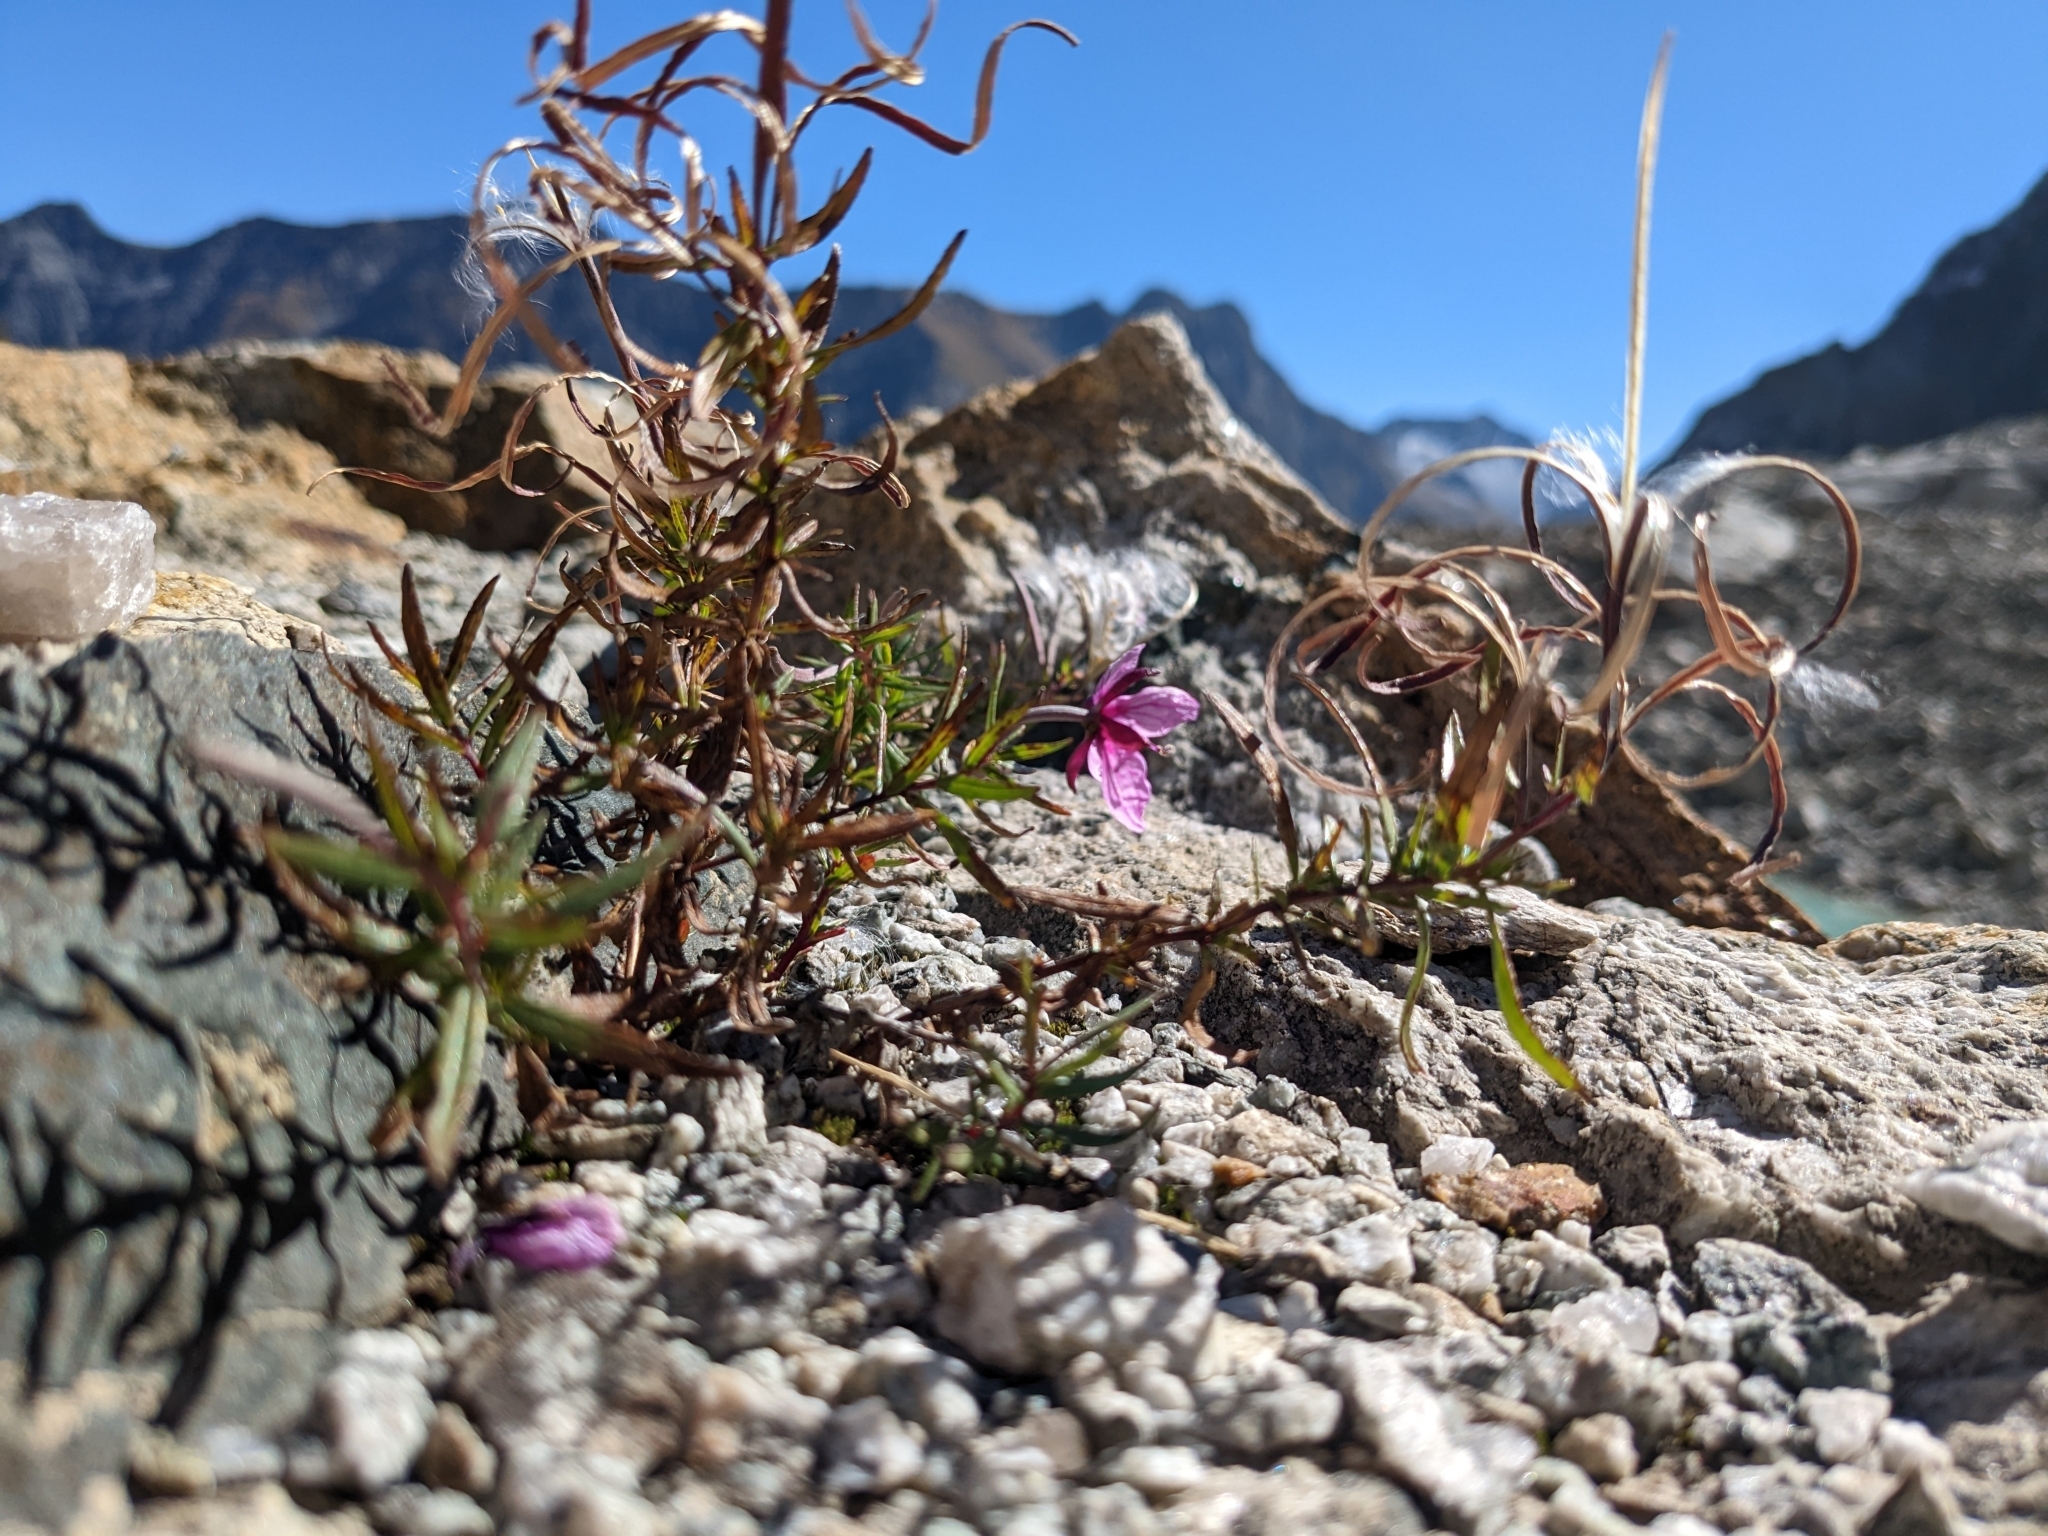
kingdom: Plantae
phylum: Tracheophyta
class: Magnoliopsida
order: Myrtales
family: Onagraceae
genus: Chamaenerion
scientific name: Chamaenerion fleischeri
